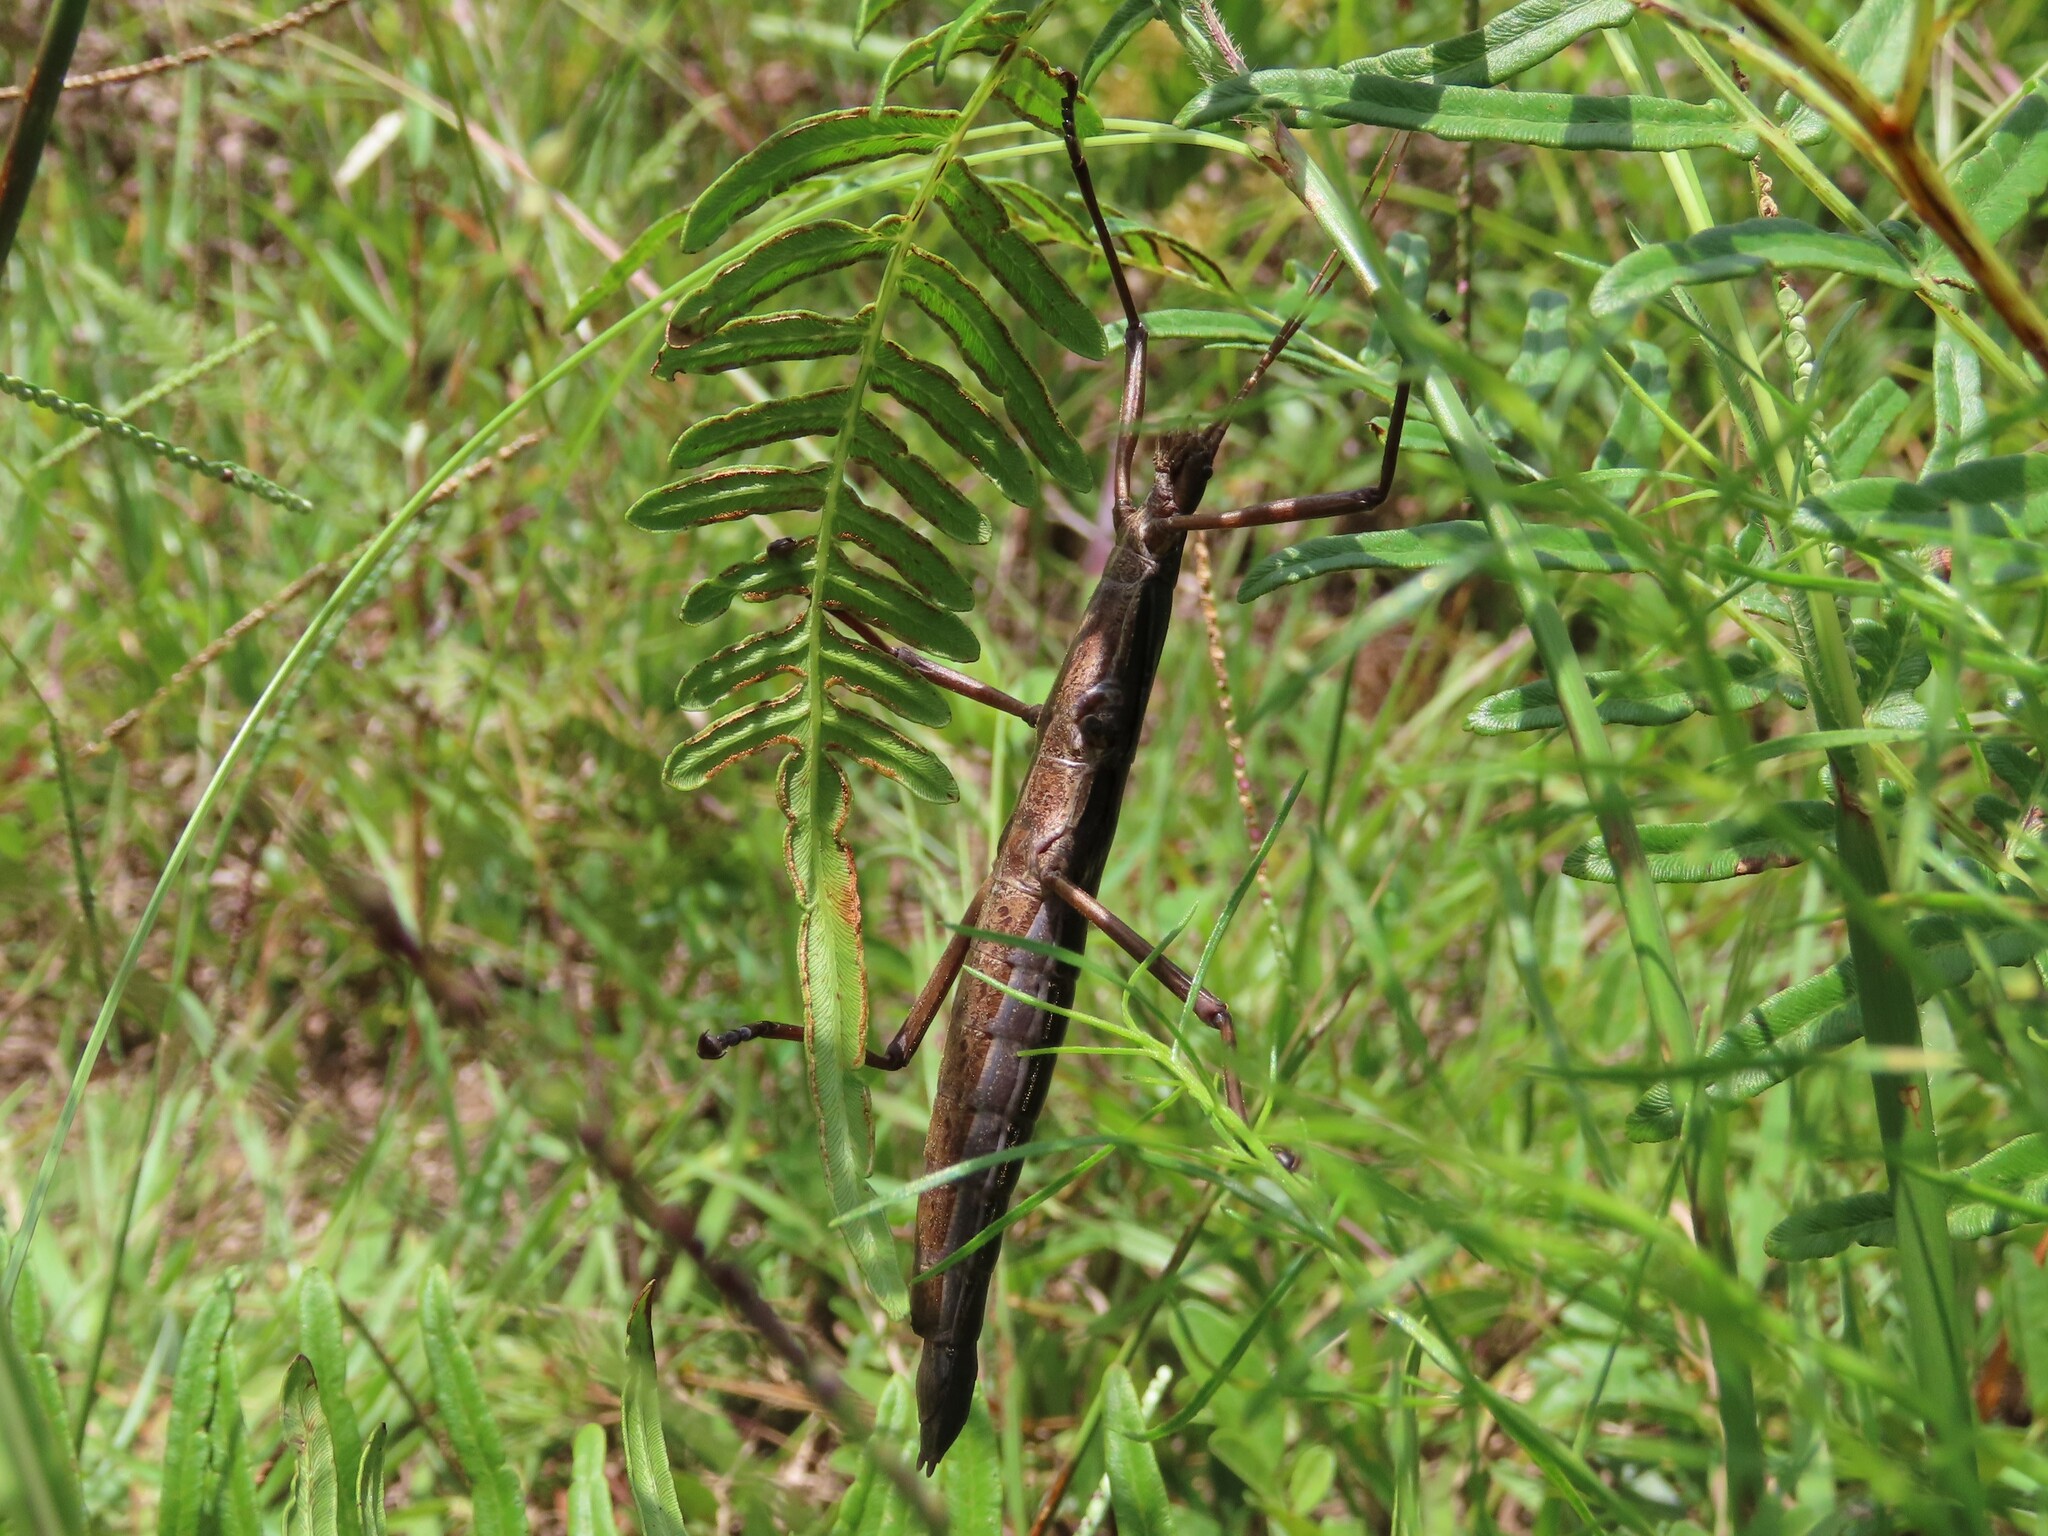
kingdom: Animalia
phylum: Arthropoda
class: Insecta
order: Phasmida
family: Pseudophasmatidae
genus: Anisomorpha
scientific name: Anisomorpha buprestoides
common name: Florida stick insect
